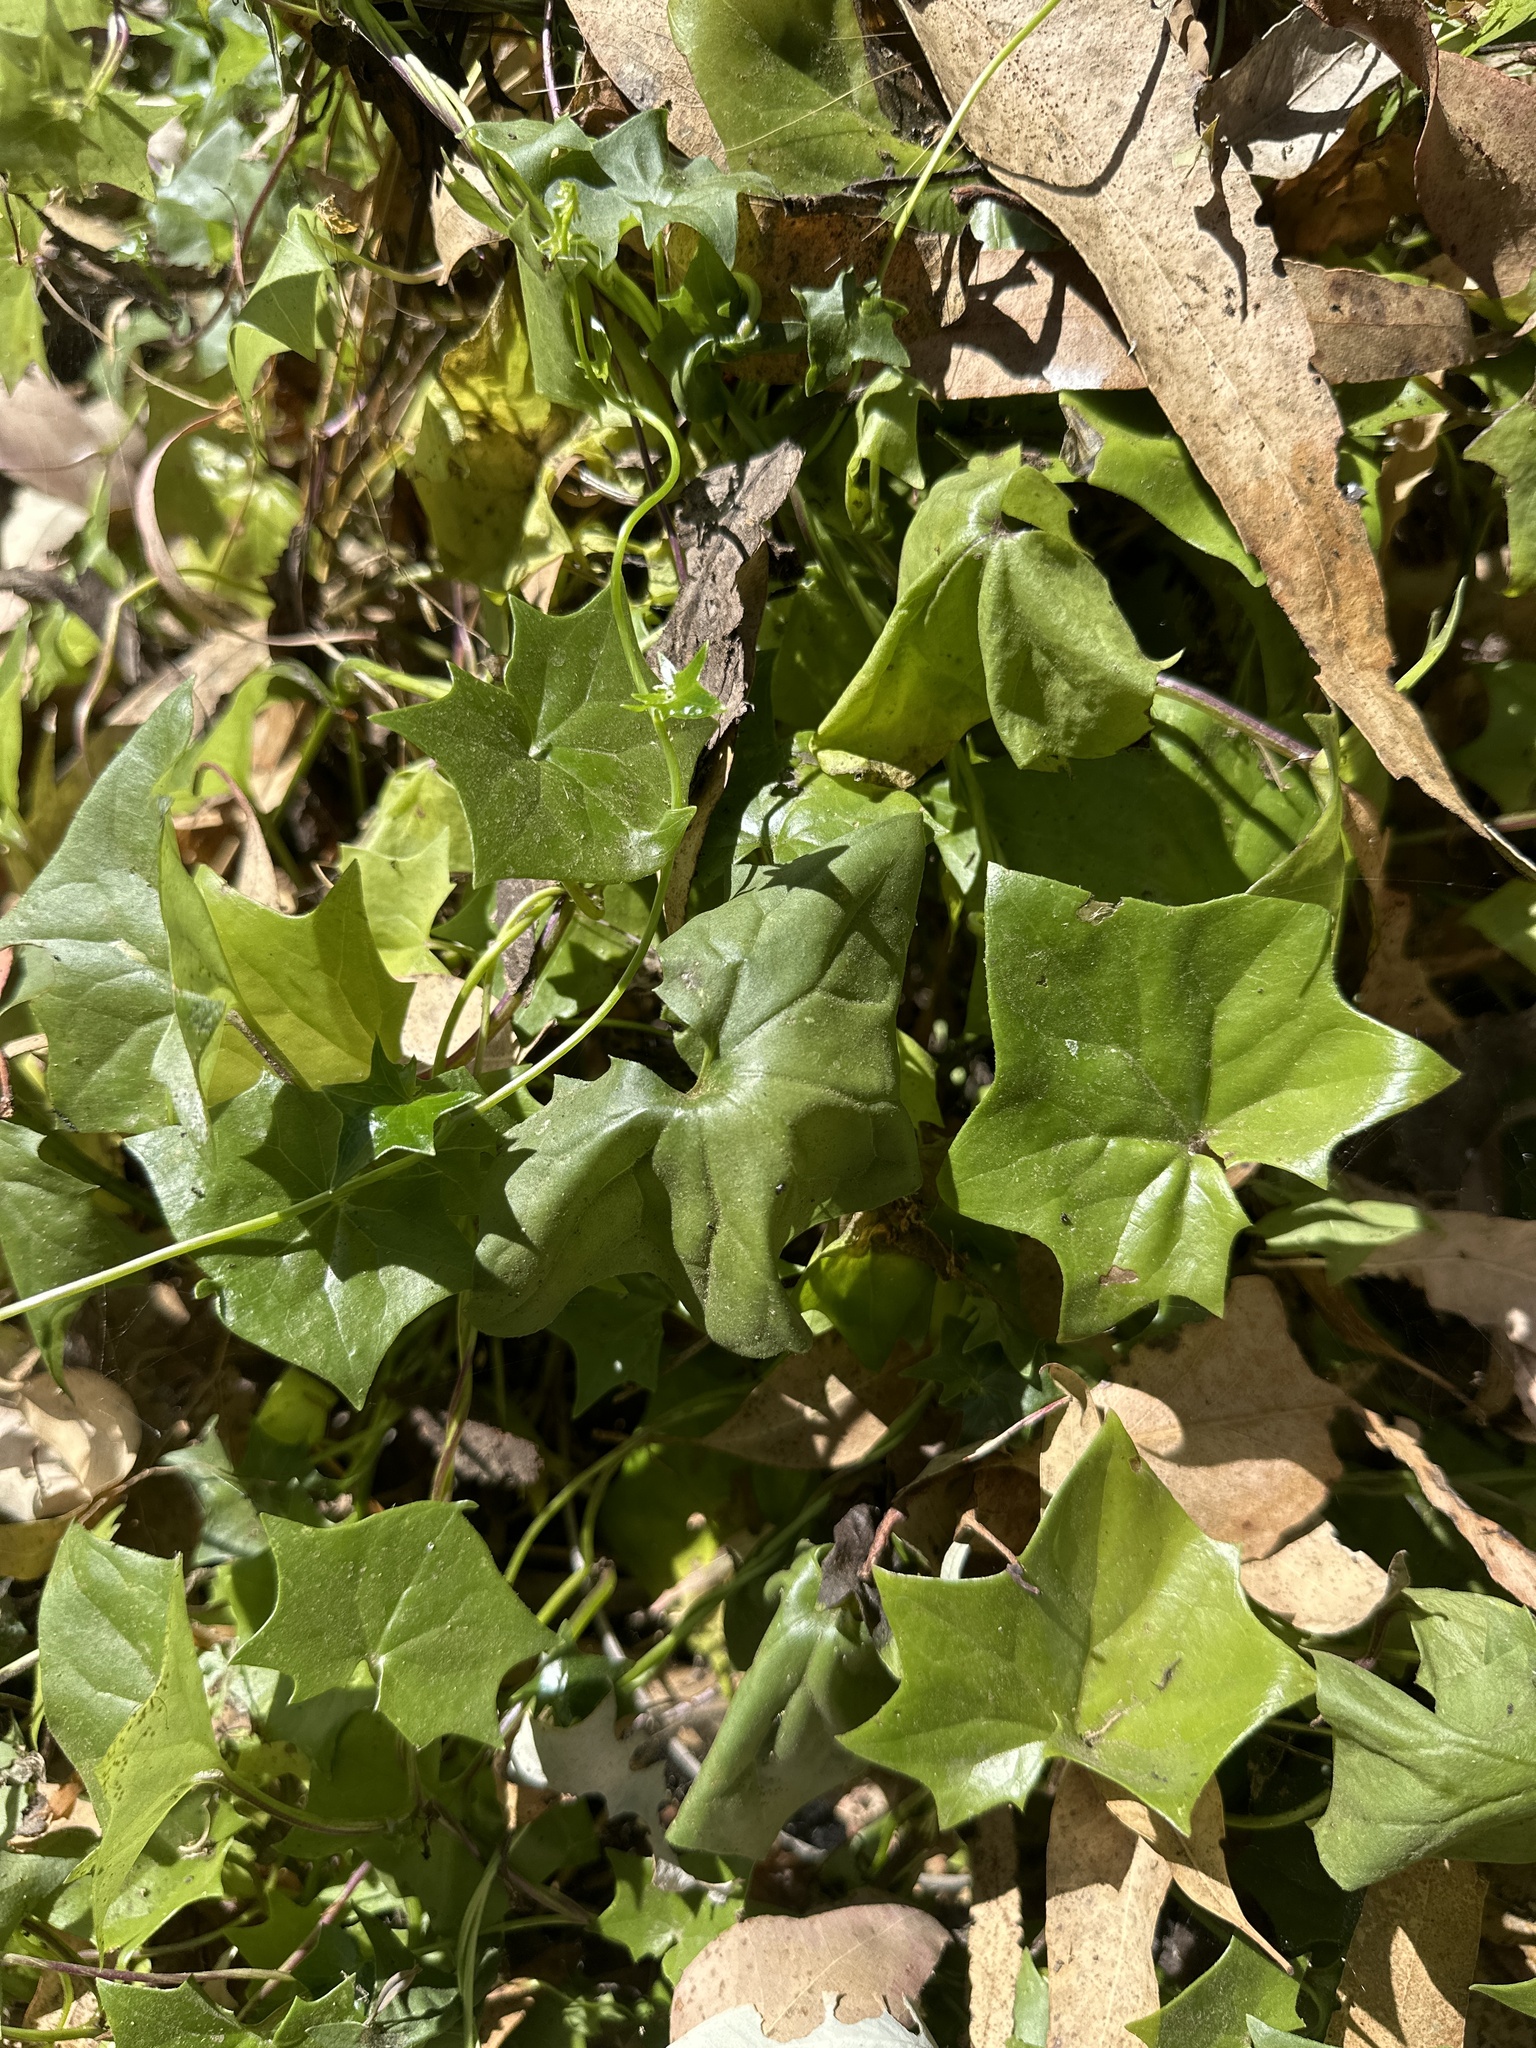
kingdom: Plantae
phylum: Tracheophyta
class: Magnoliopsida
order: Asterales
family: Asteraceae
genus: Delairea
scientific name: Delairea odorata
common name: Cape-ivy
